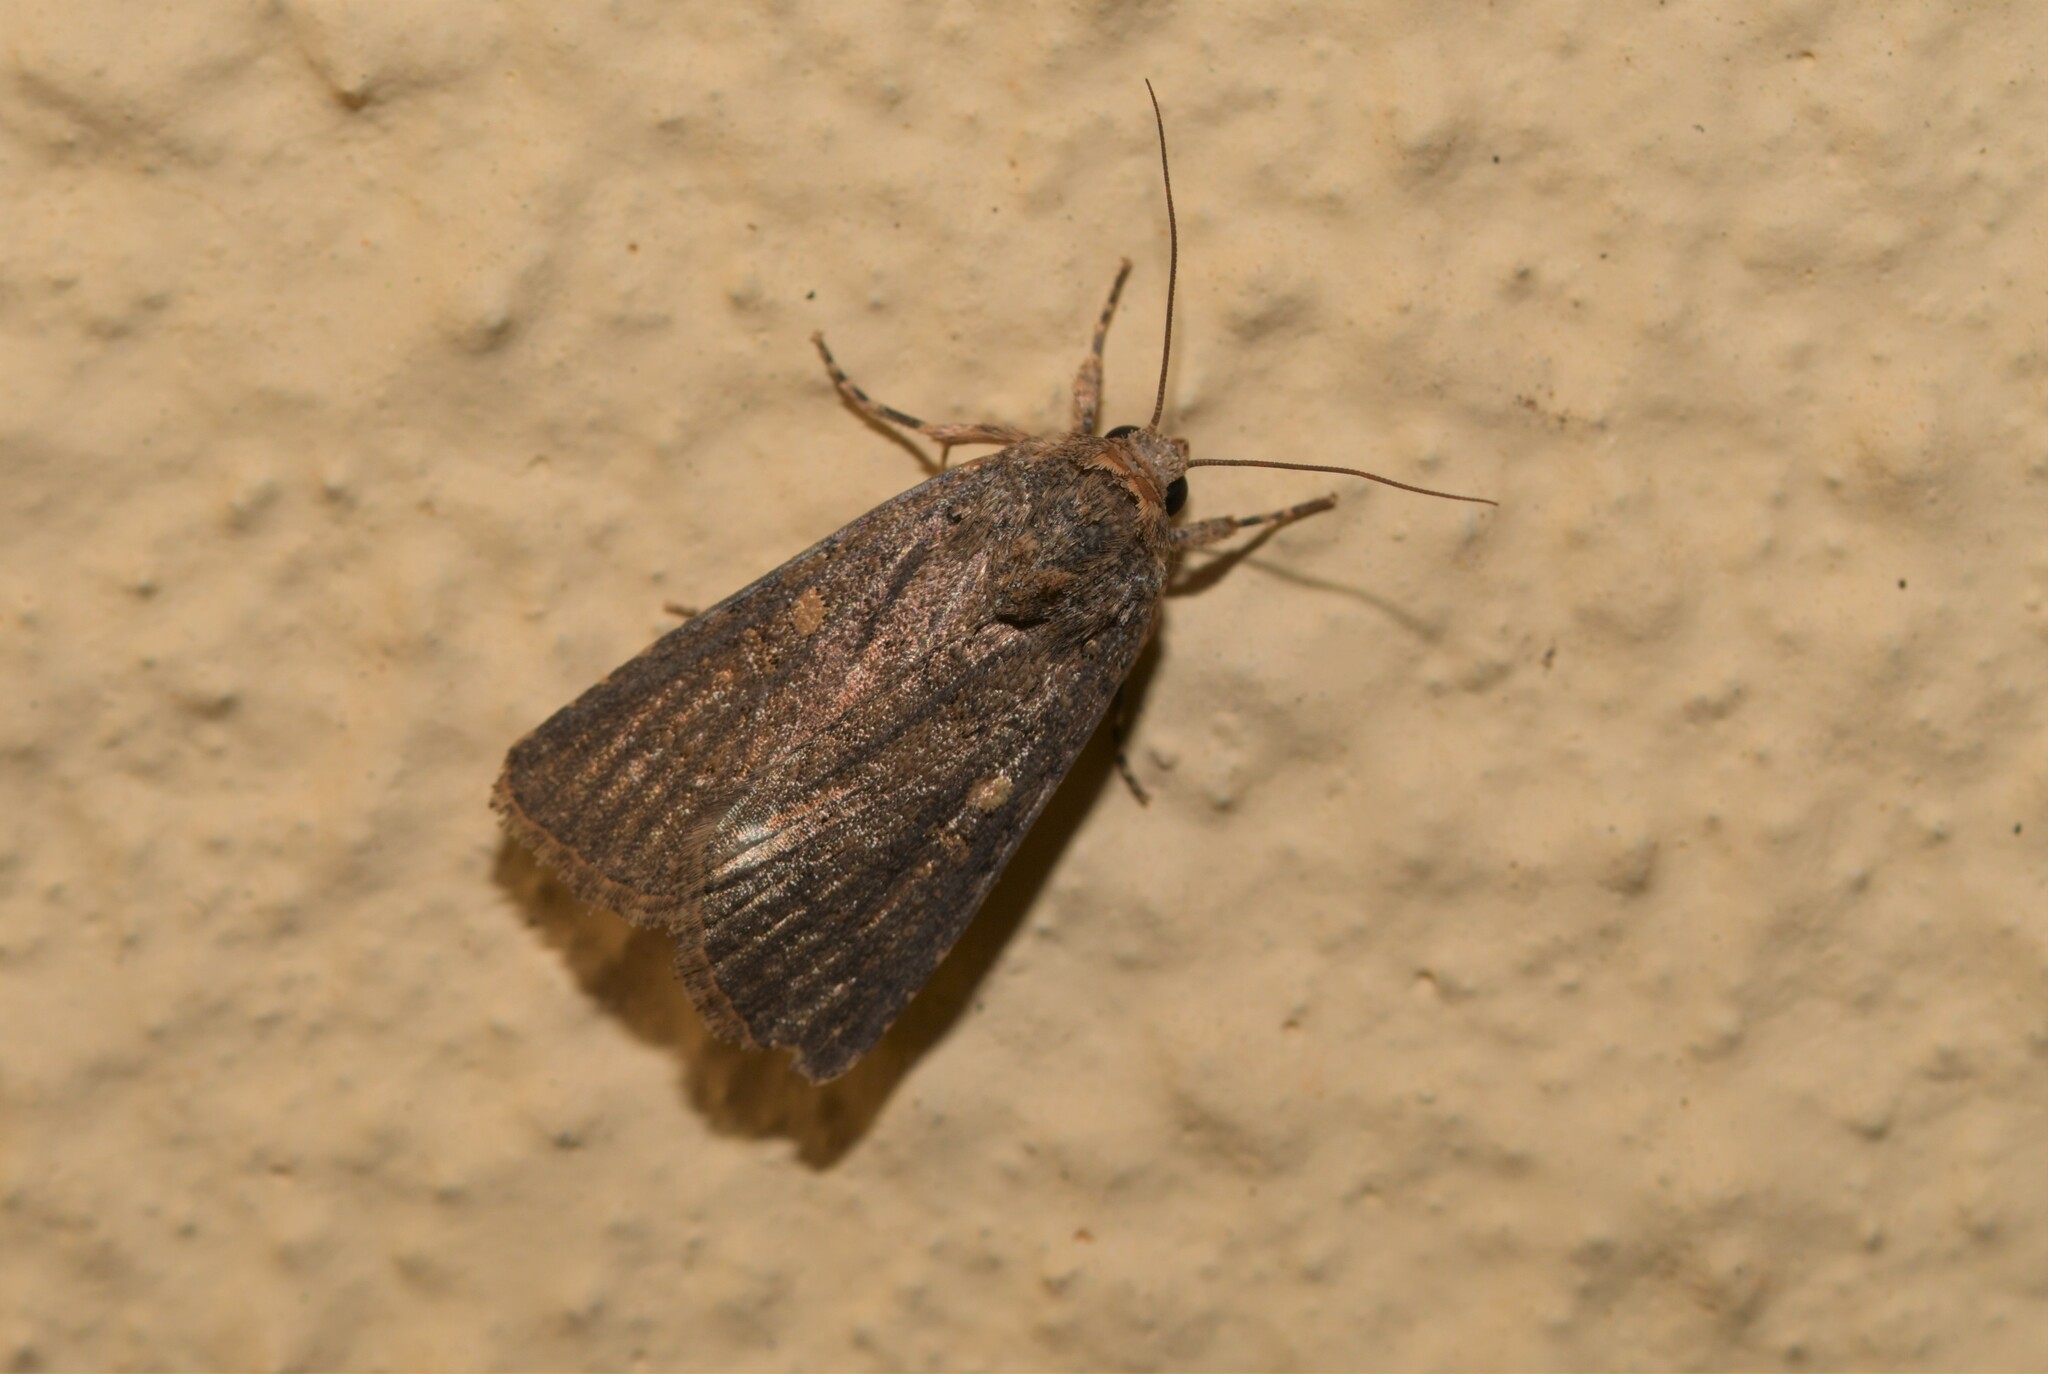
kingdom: Animalia
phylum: Arthropoda
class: Insecta
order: Lepidoptera
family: Noctuidae
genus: Spodoptera
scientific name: Spodoptera cilium
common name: Dark mottled willow
